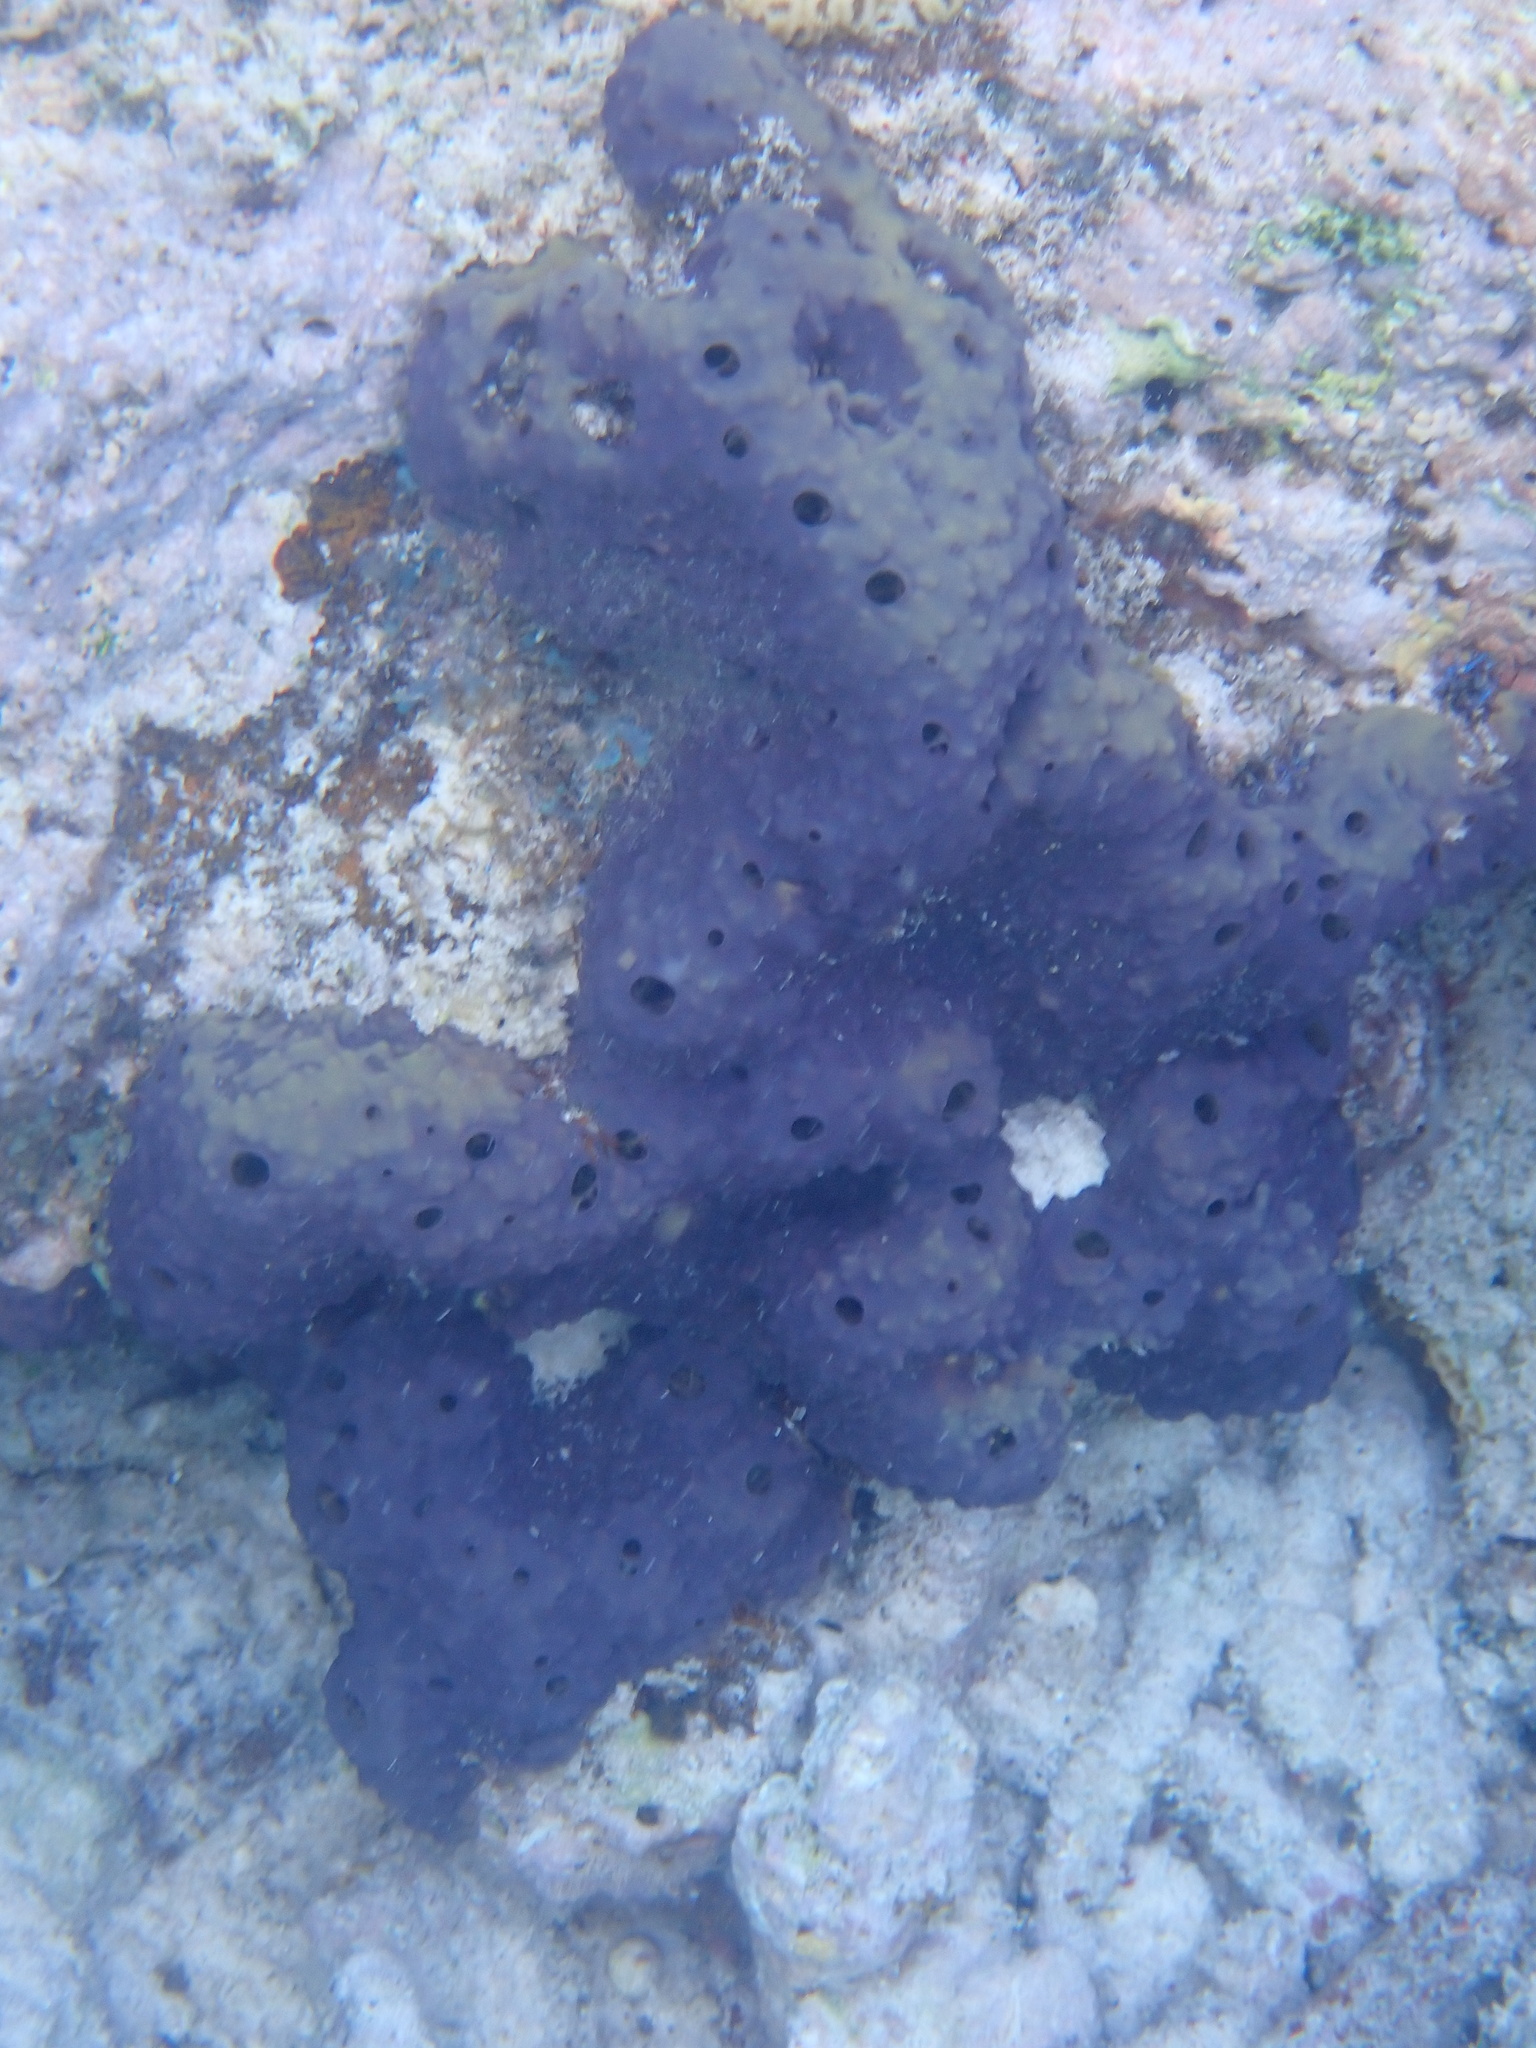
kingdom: Animalia
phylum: Porifera
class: Demospongiae
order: Verongiida
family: Aplysinidae
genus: Aiolochroia
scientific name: Aiolochroia crassa
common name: Branching tube sponge
